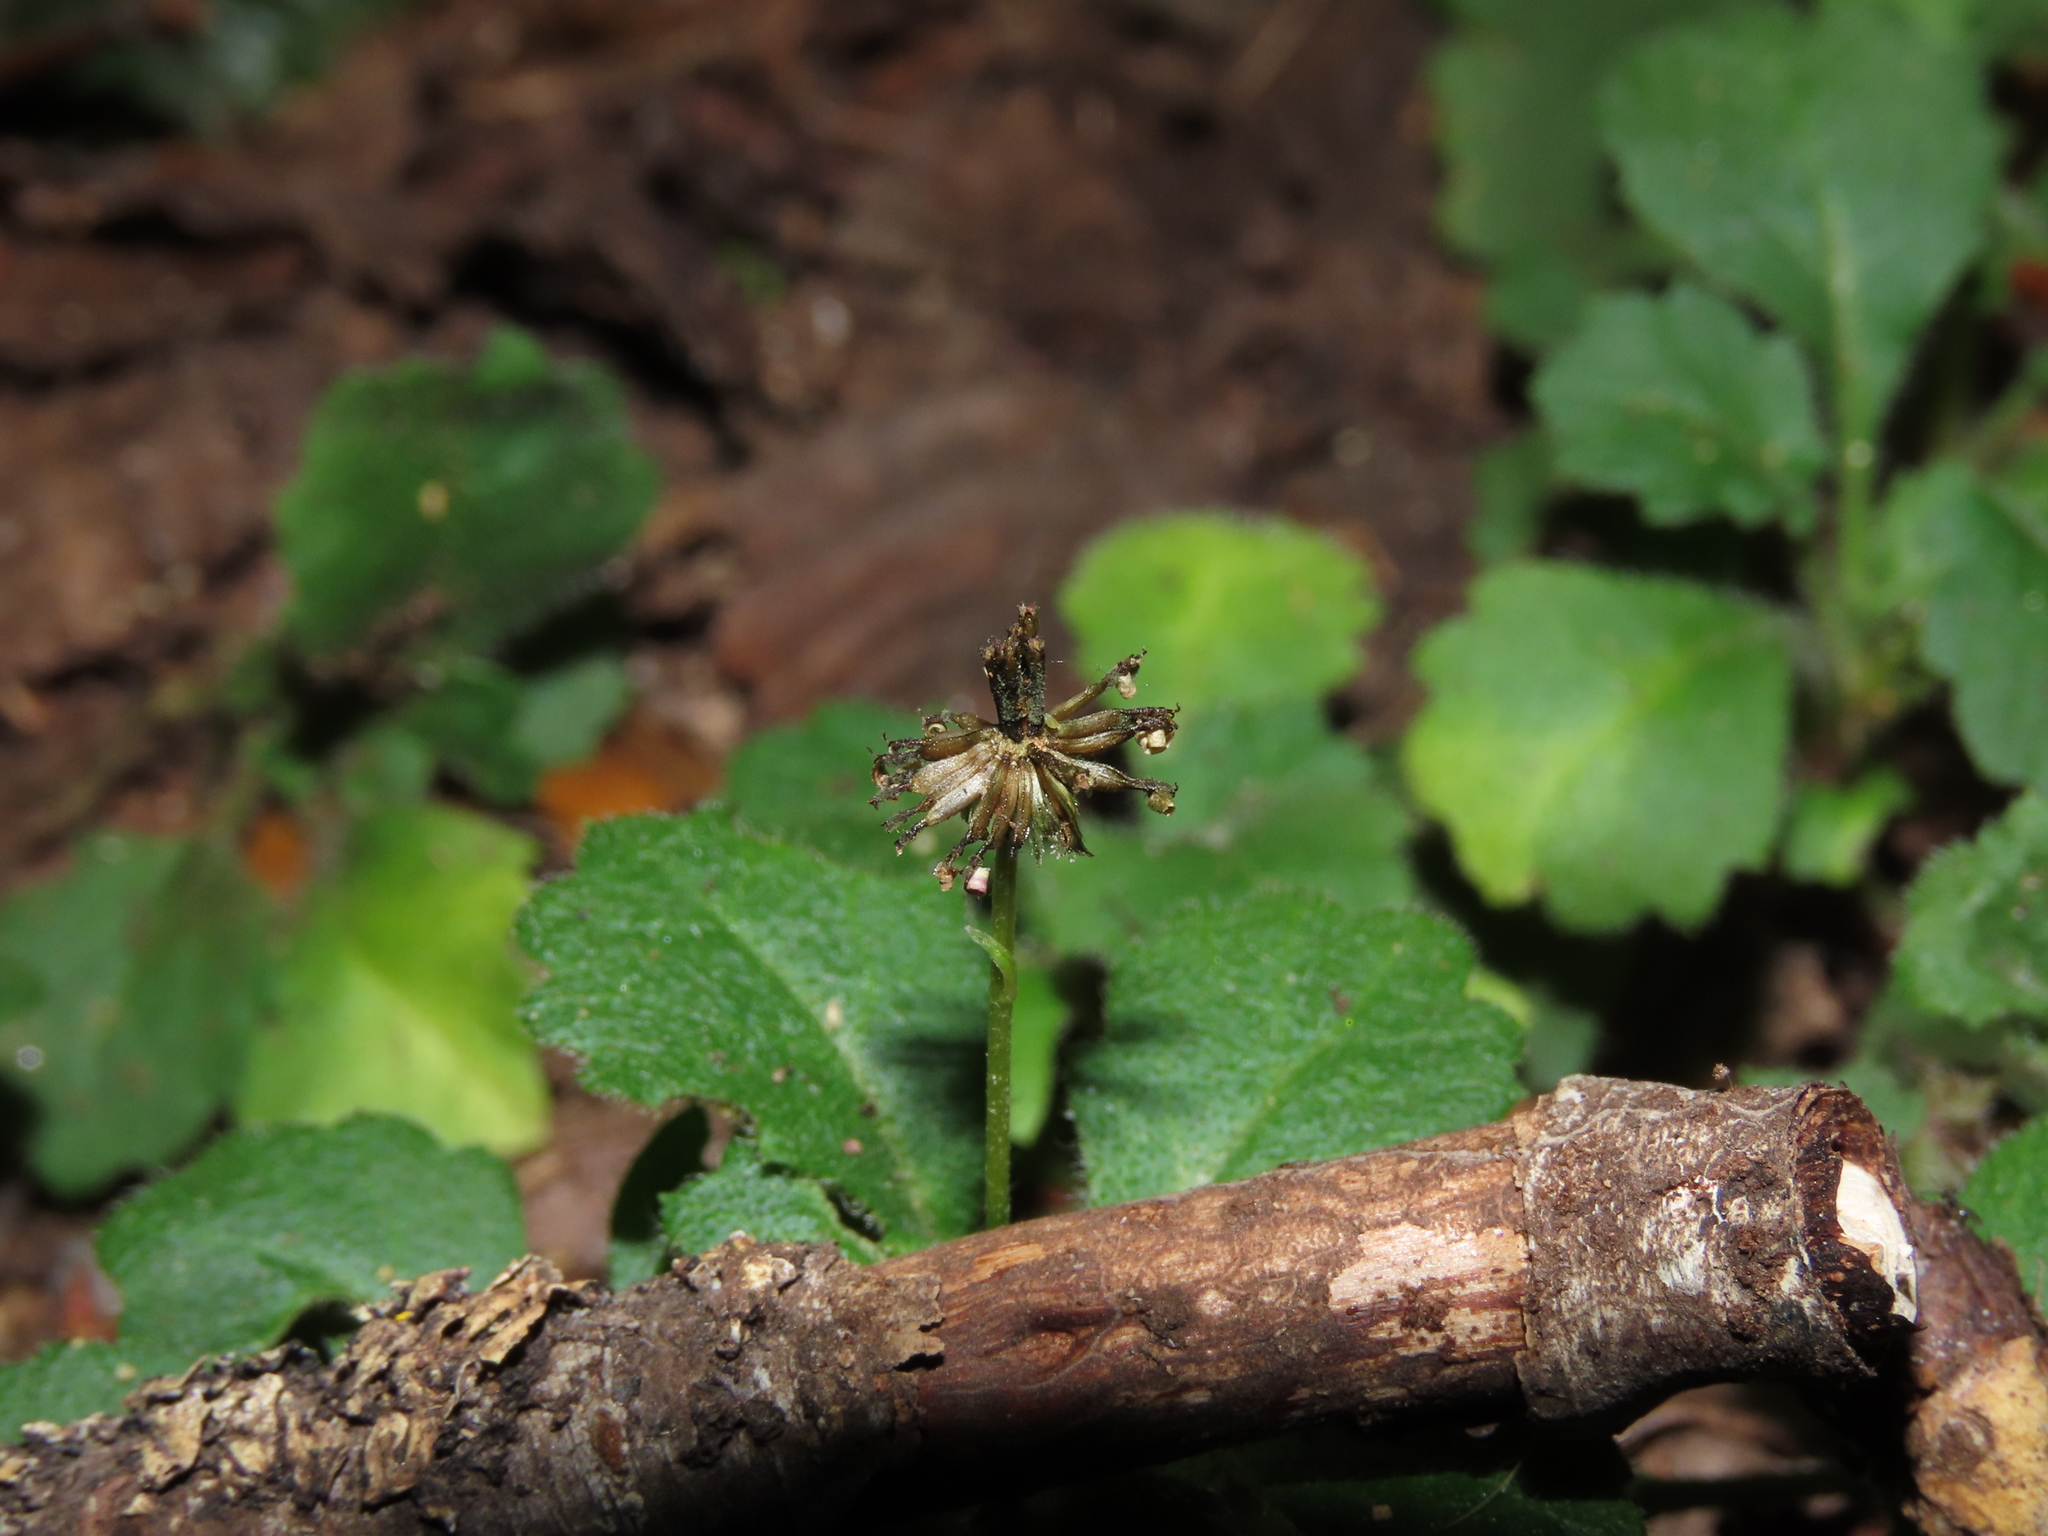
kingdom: Plantae
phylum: Tracheophyta
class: Magnoliopsida
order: Asterales
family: Asteraceae
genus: Lagenophora
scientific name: Lagenophora hariotii
